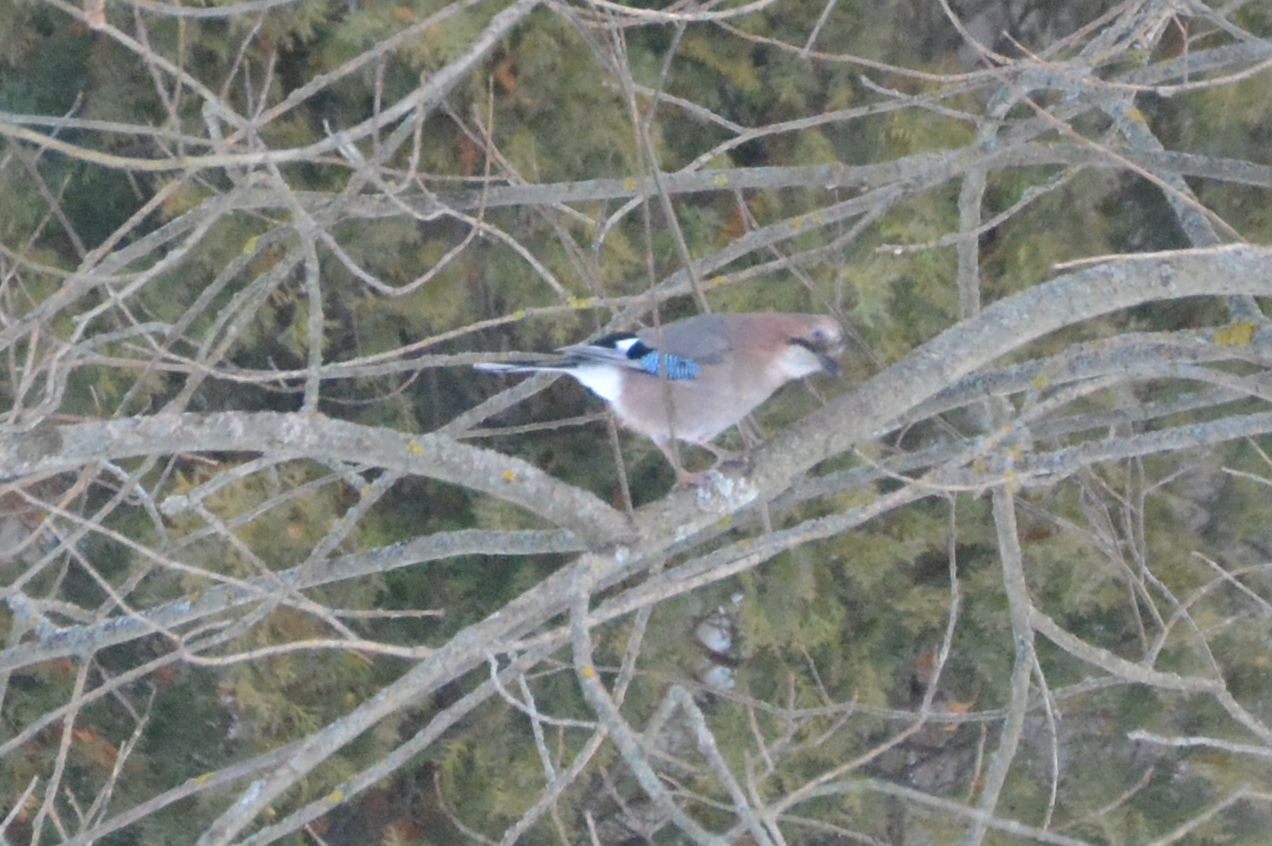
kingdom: Animalia
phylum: Chordata
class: Aves
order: Passeriformes
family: Corvidae
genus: Garrulus
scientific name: Garrulus glandarius
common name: Eurasian jay
